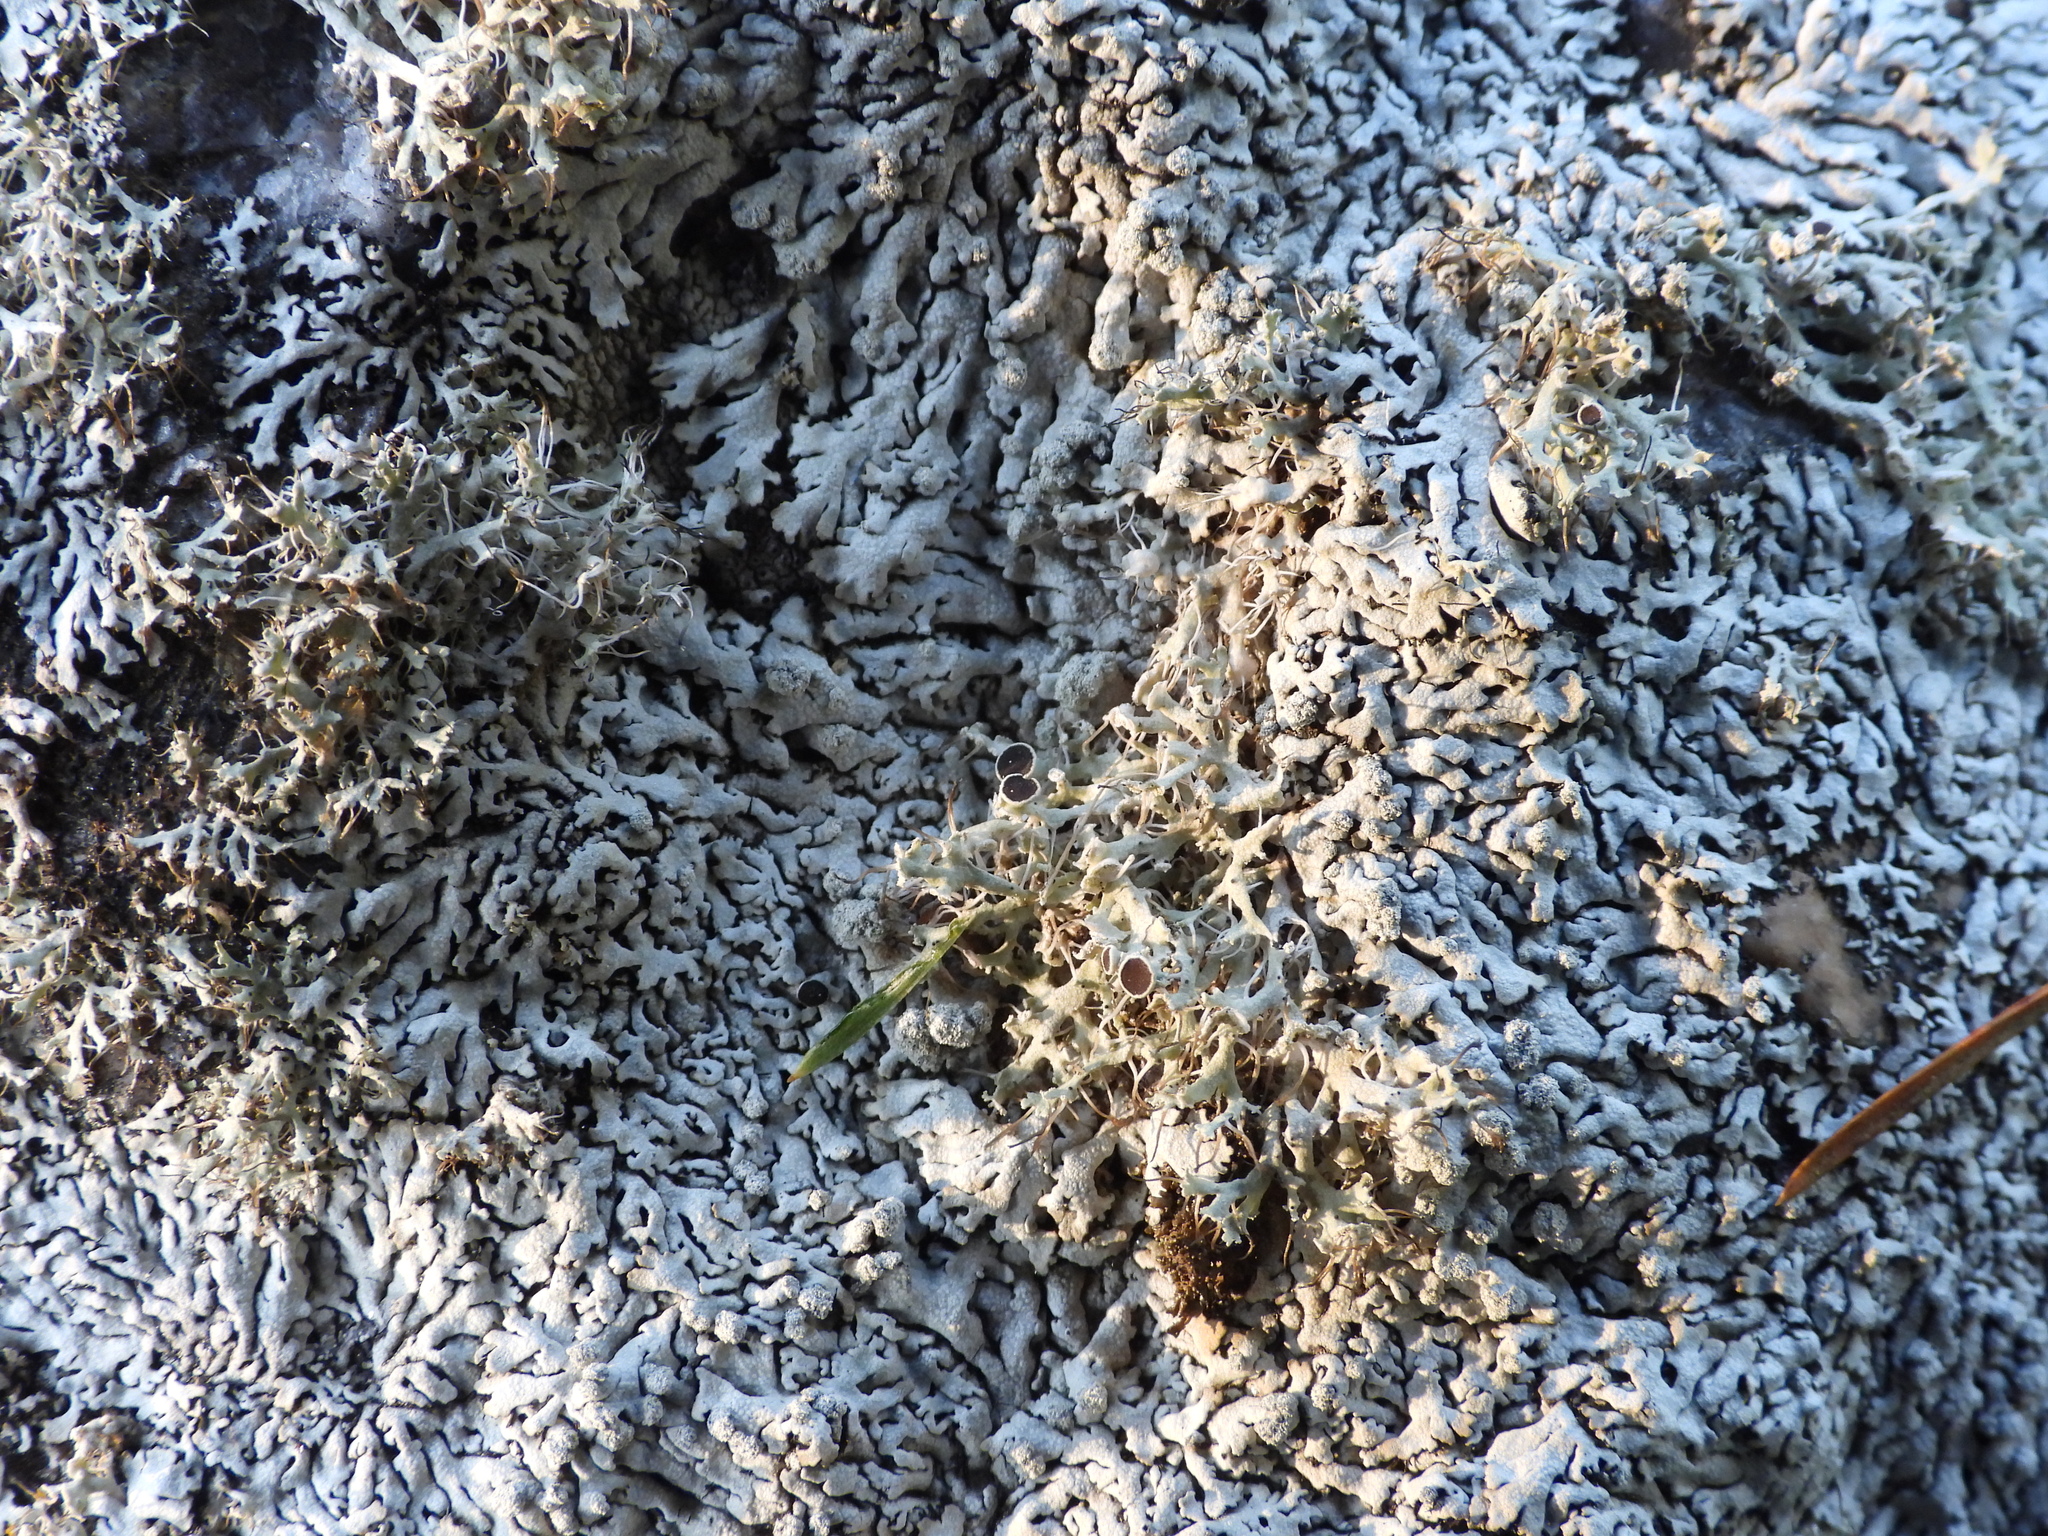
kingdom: Fungi
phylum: Ascomycota
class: Lecanoromycetes
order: Caliciales
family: Physciaceae
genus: Physcia
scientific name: Physcia tenella
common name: Fringed rosette lichen
